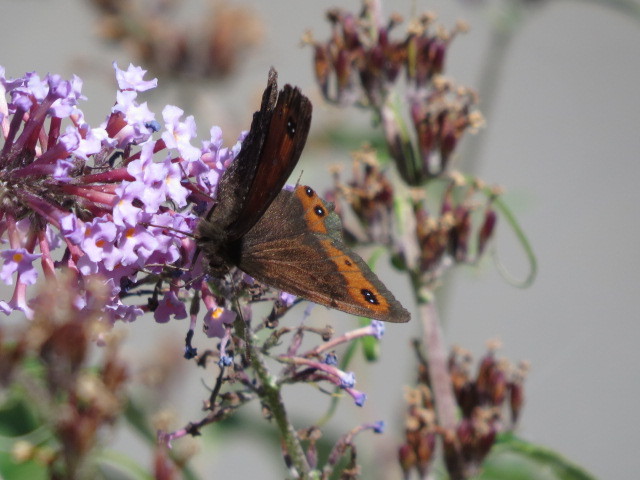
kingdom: Animalia
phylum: Arthropoda
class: Insecta
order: Lepidoptera
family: Nymphalidae
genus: Erebia
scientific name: Erebia montanus
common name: Marbled ringlet
